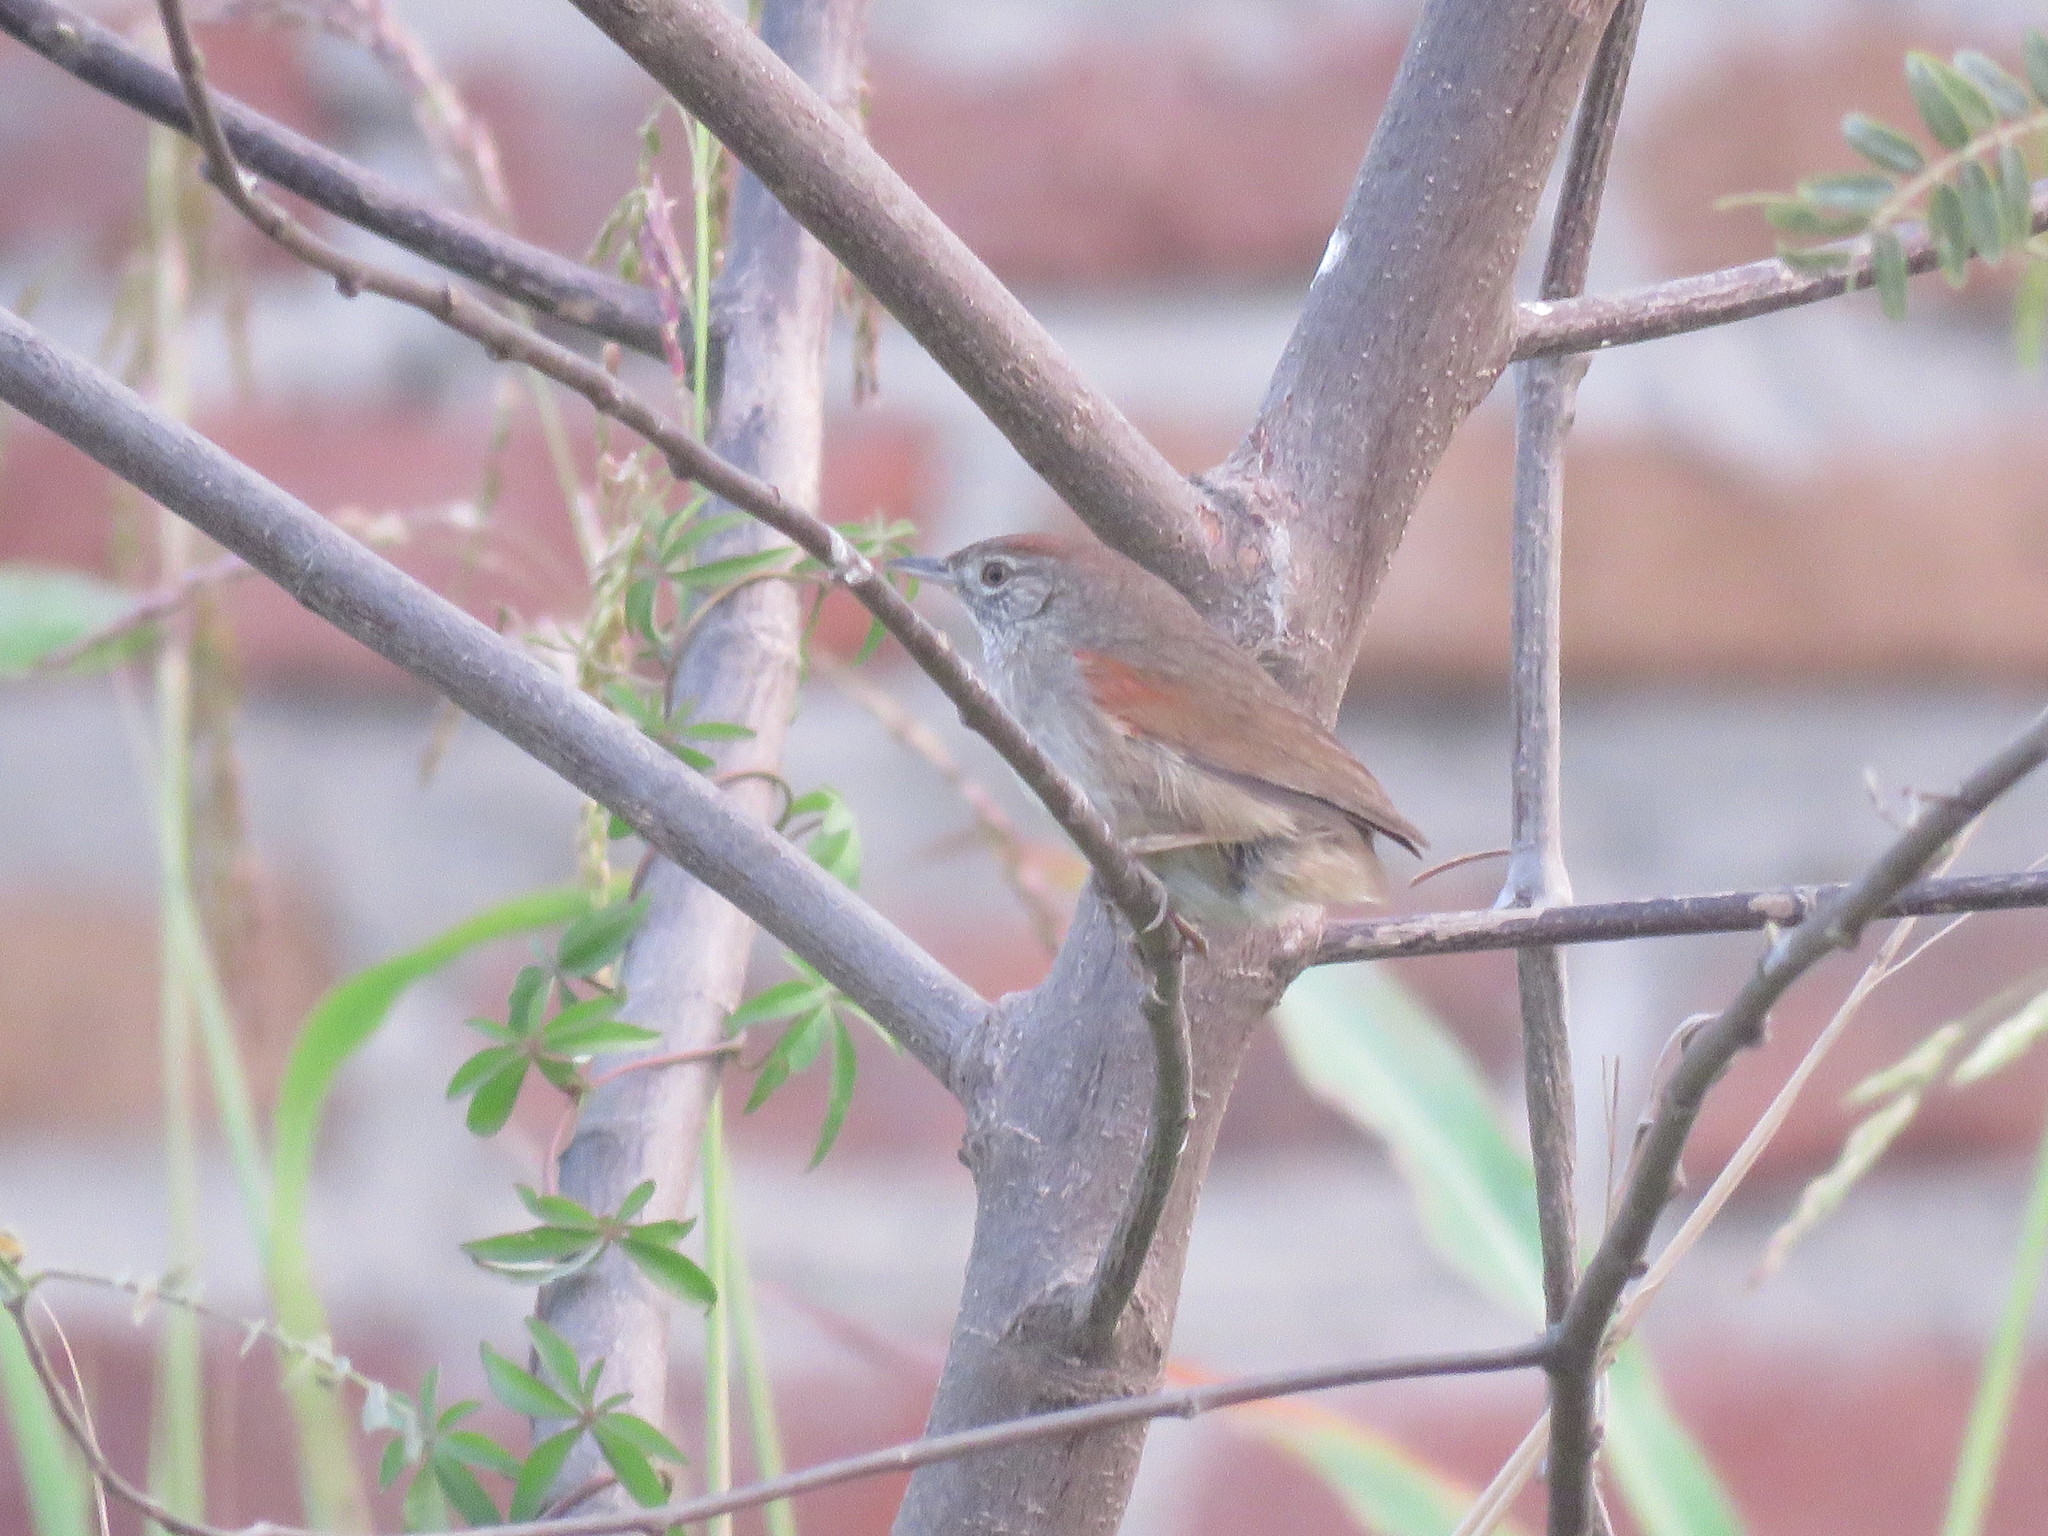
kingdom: Animalia
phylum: Chordata
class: Aves
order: Passeriformes
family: Furnariidae
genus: Synallaxis
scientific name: Synallaxis frontalis
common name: Sooty-fronted spinetail
